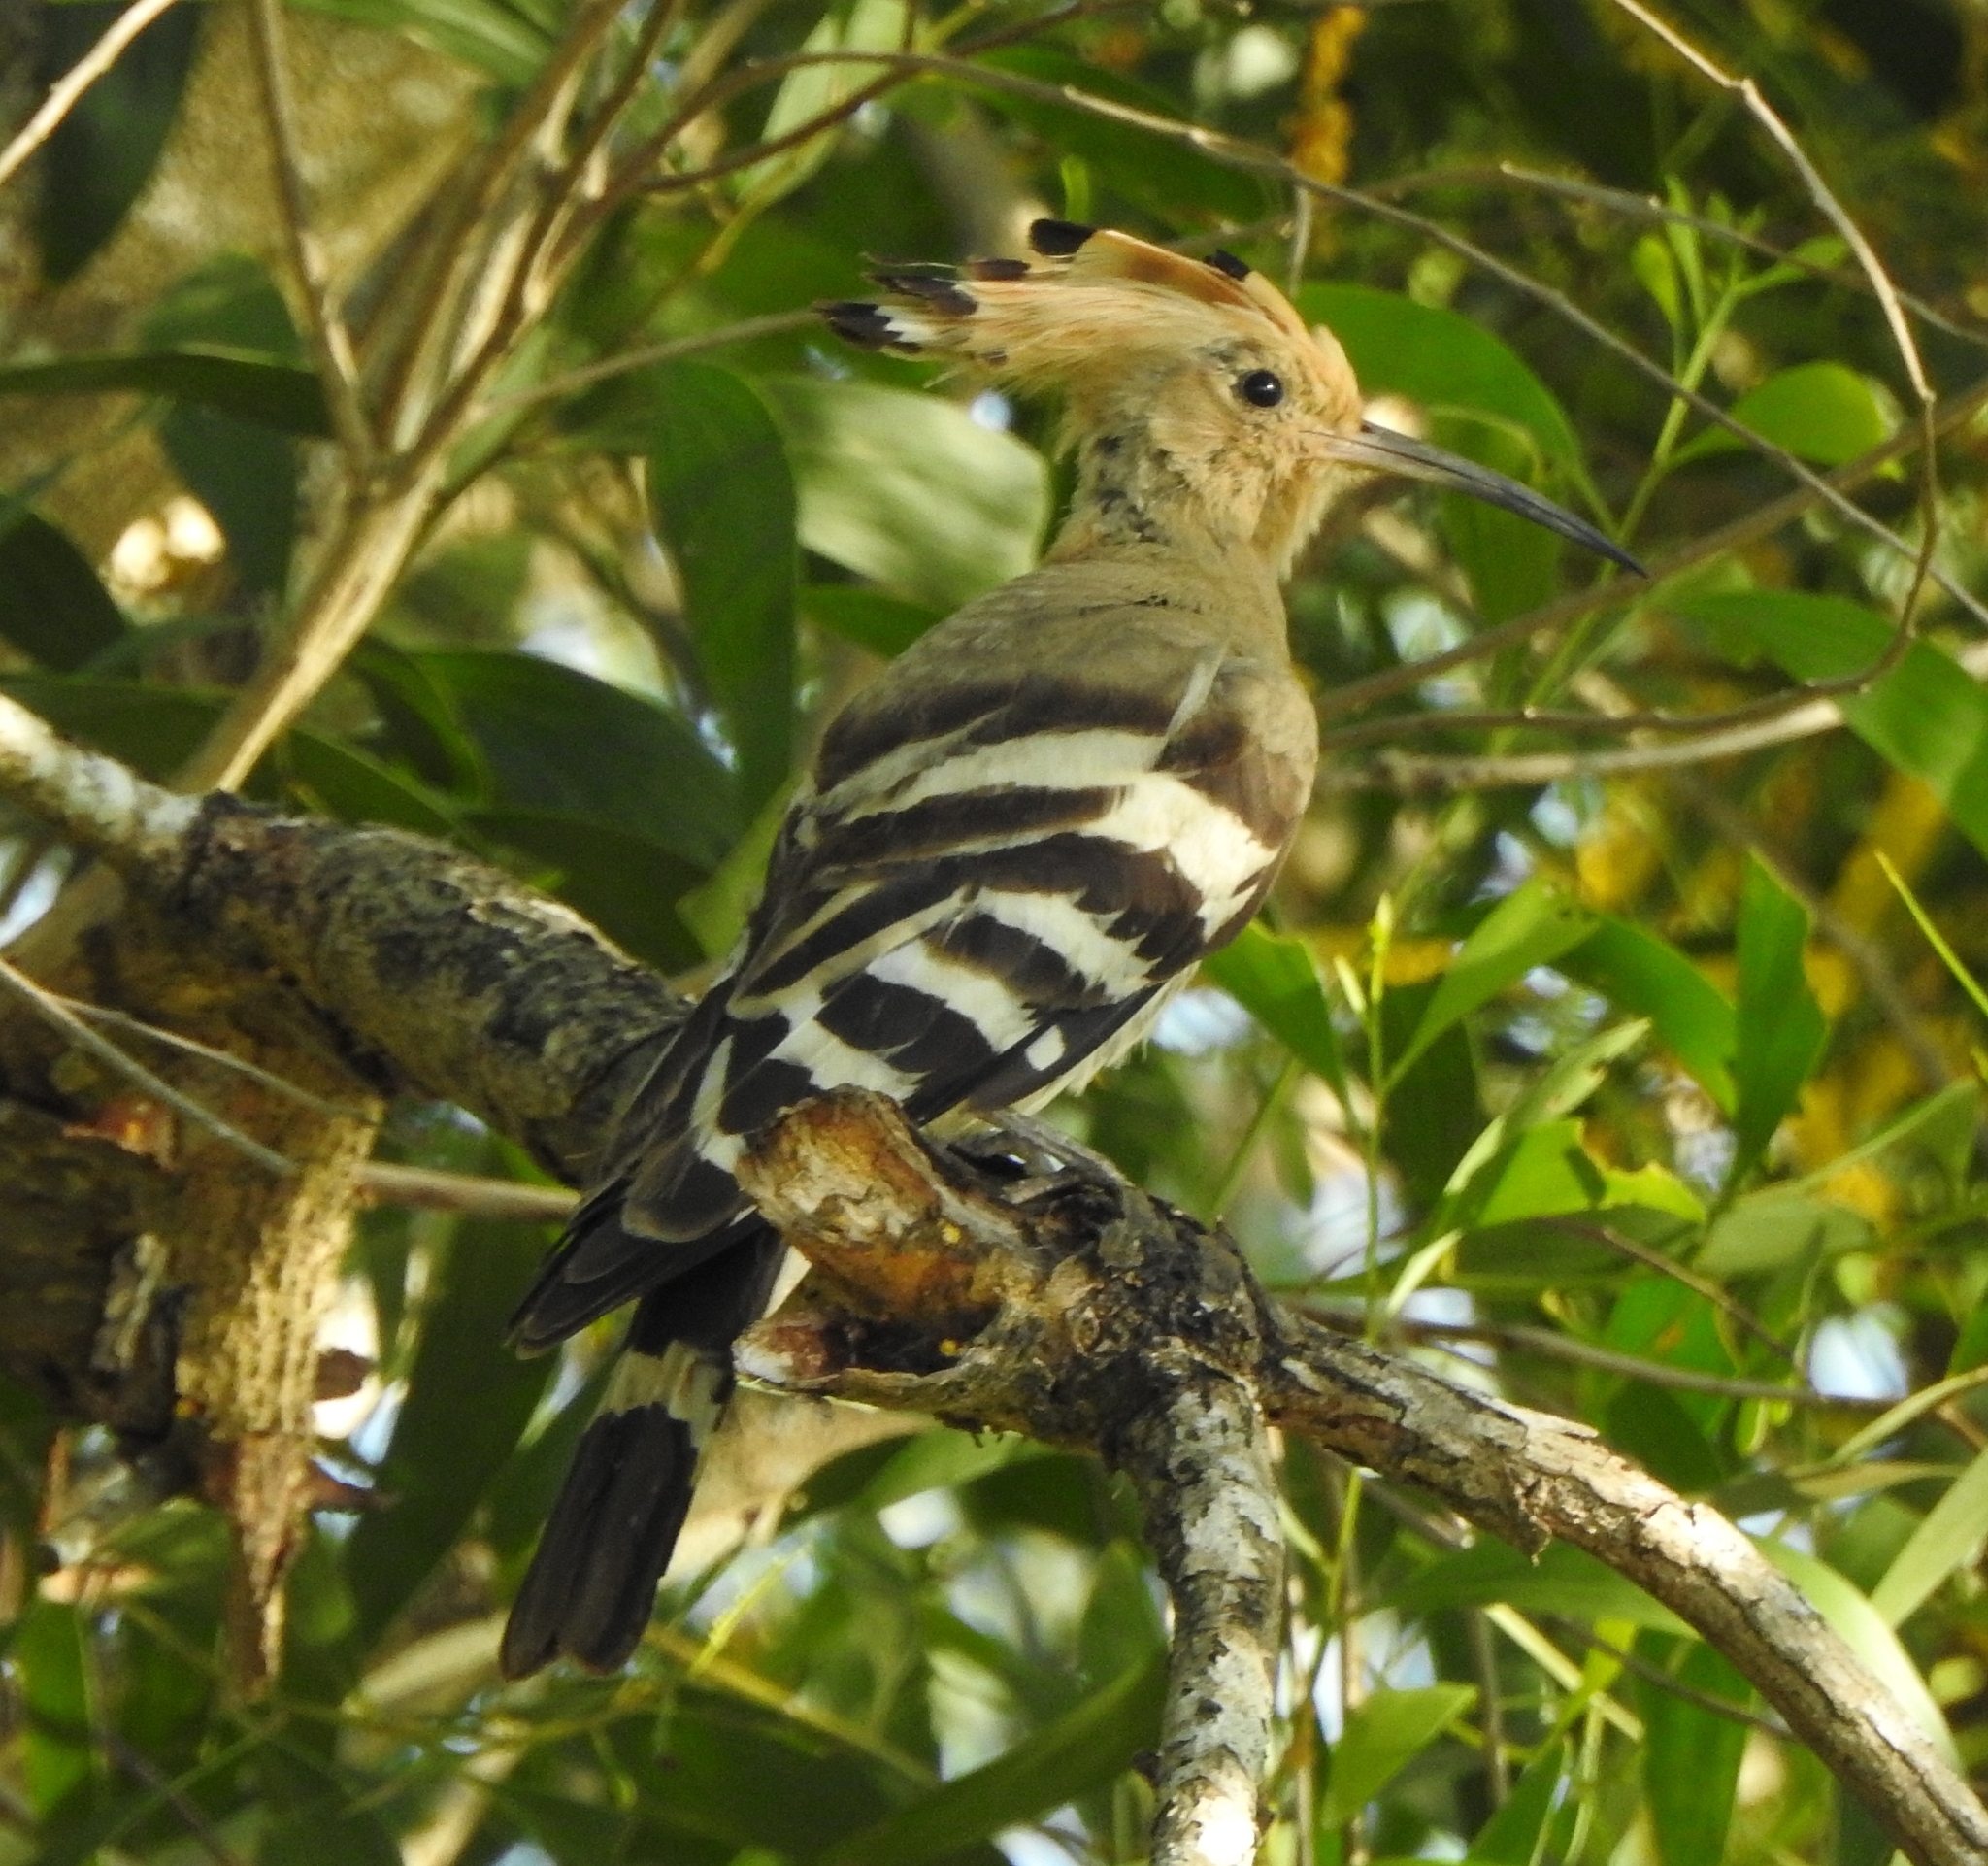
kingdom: Animalia
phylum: Chordata
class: Aves
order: Bucerotiformes
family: Upupidae
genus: Upupa
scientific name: Upupa epops
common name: Eurasian hoopoe
